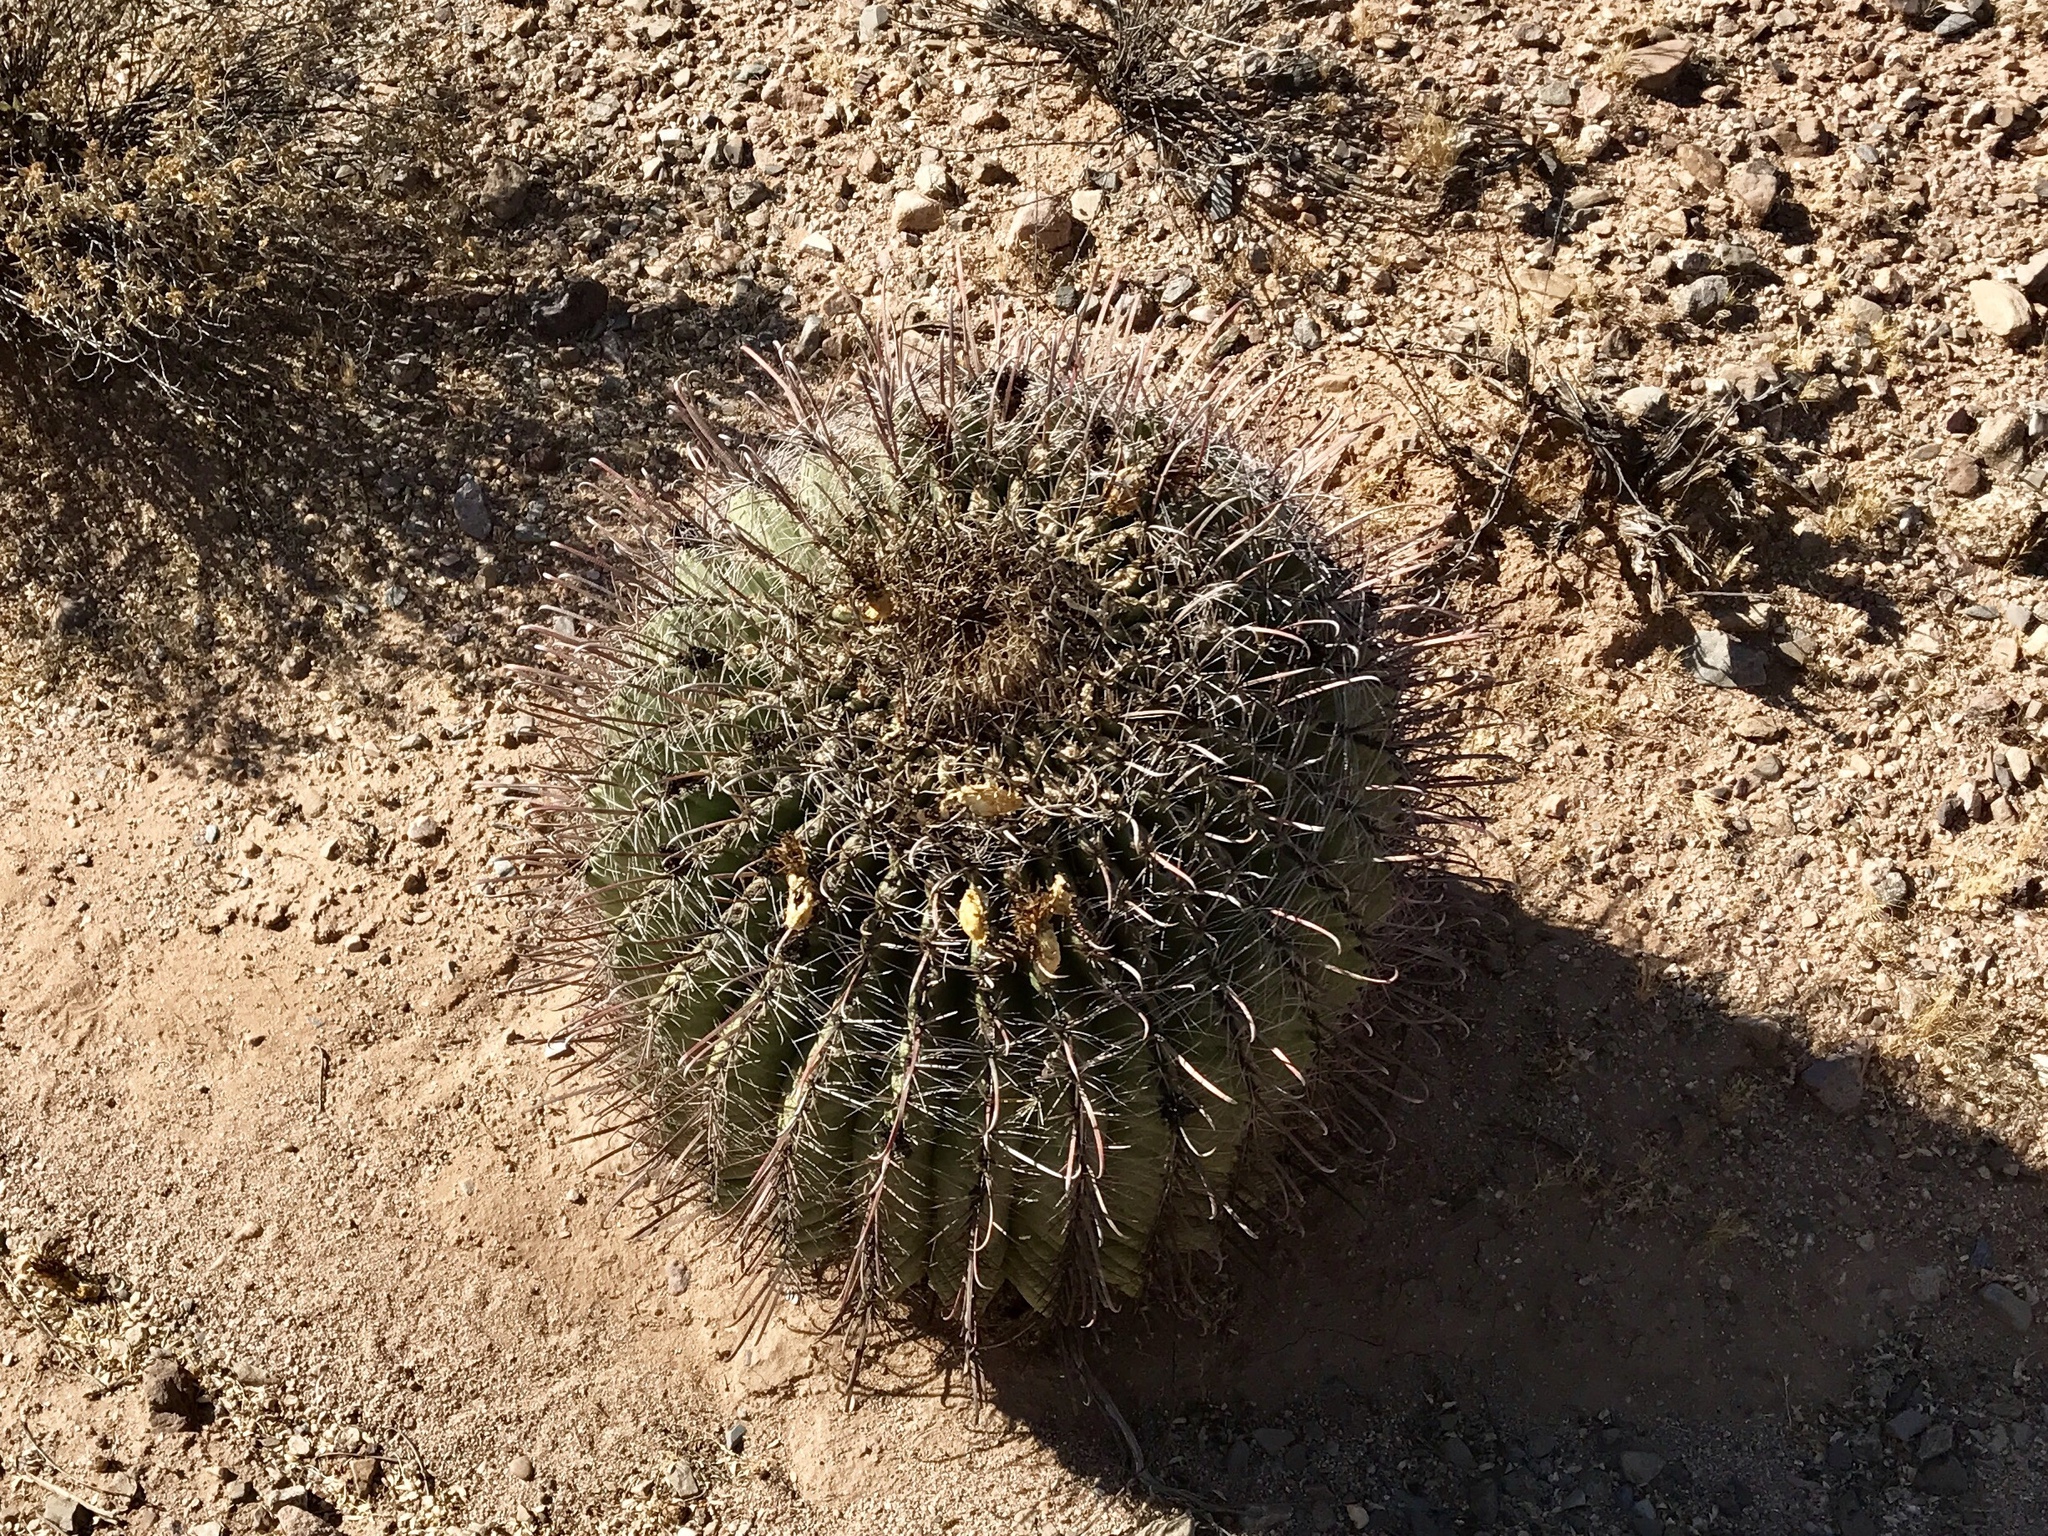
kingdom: Plantae
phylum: Tracheophyta
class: Magnoliopsida
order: Caryophyllales
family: Cactaceae
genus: Ferocactus
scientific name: Ferocactus wislizeni
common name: Candy barrel cactus
